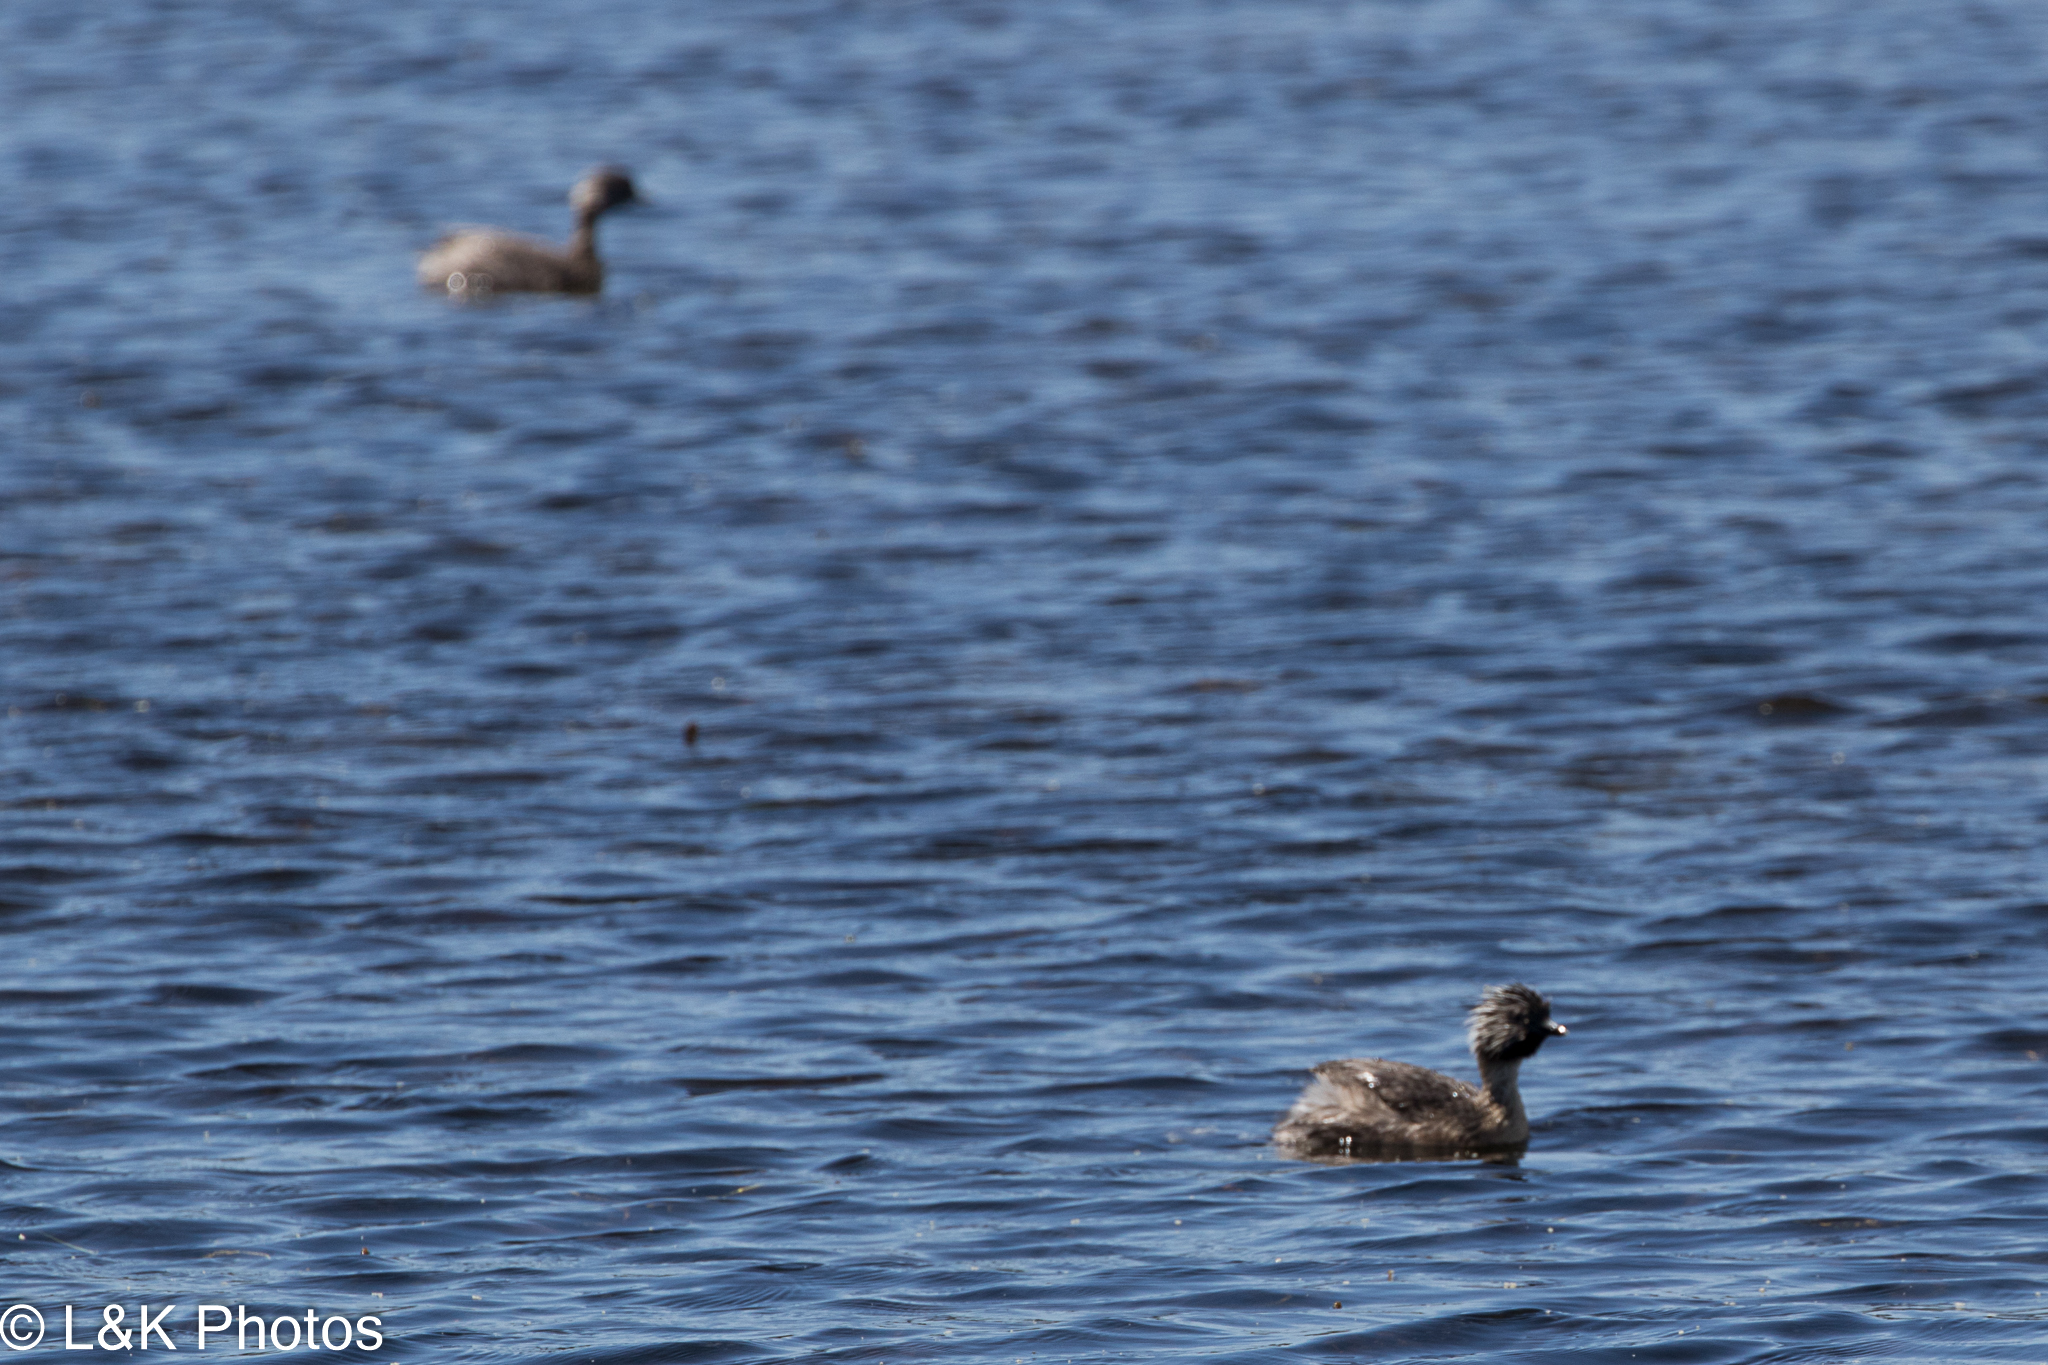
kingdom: Animalia
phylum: Chordata
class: Aves
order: Podicipediformes
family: Podicipedidae
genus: Poliocephalus
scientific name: Poliocephalus poliocephalus
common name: Hoary-headed grebe
